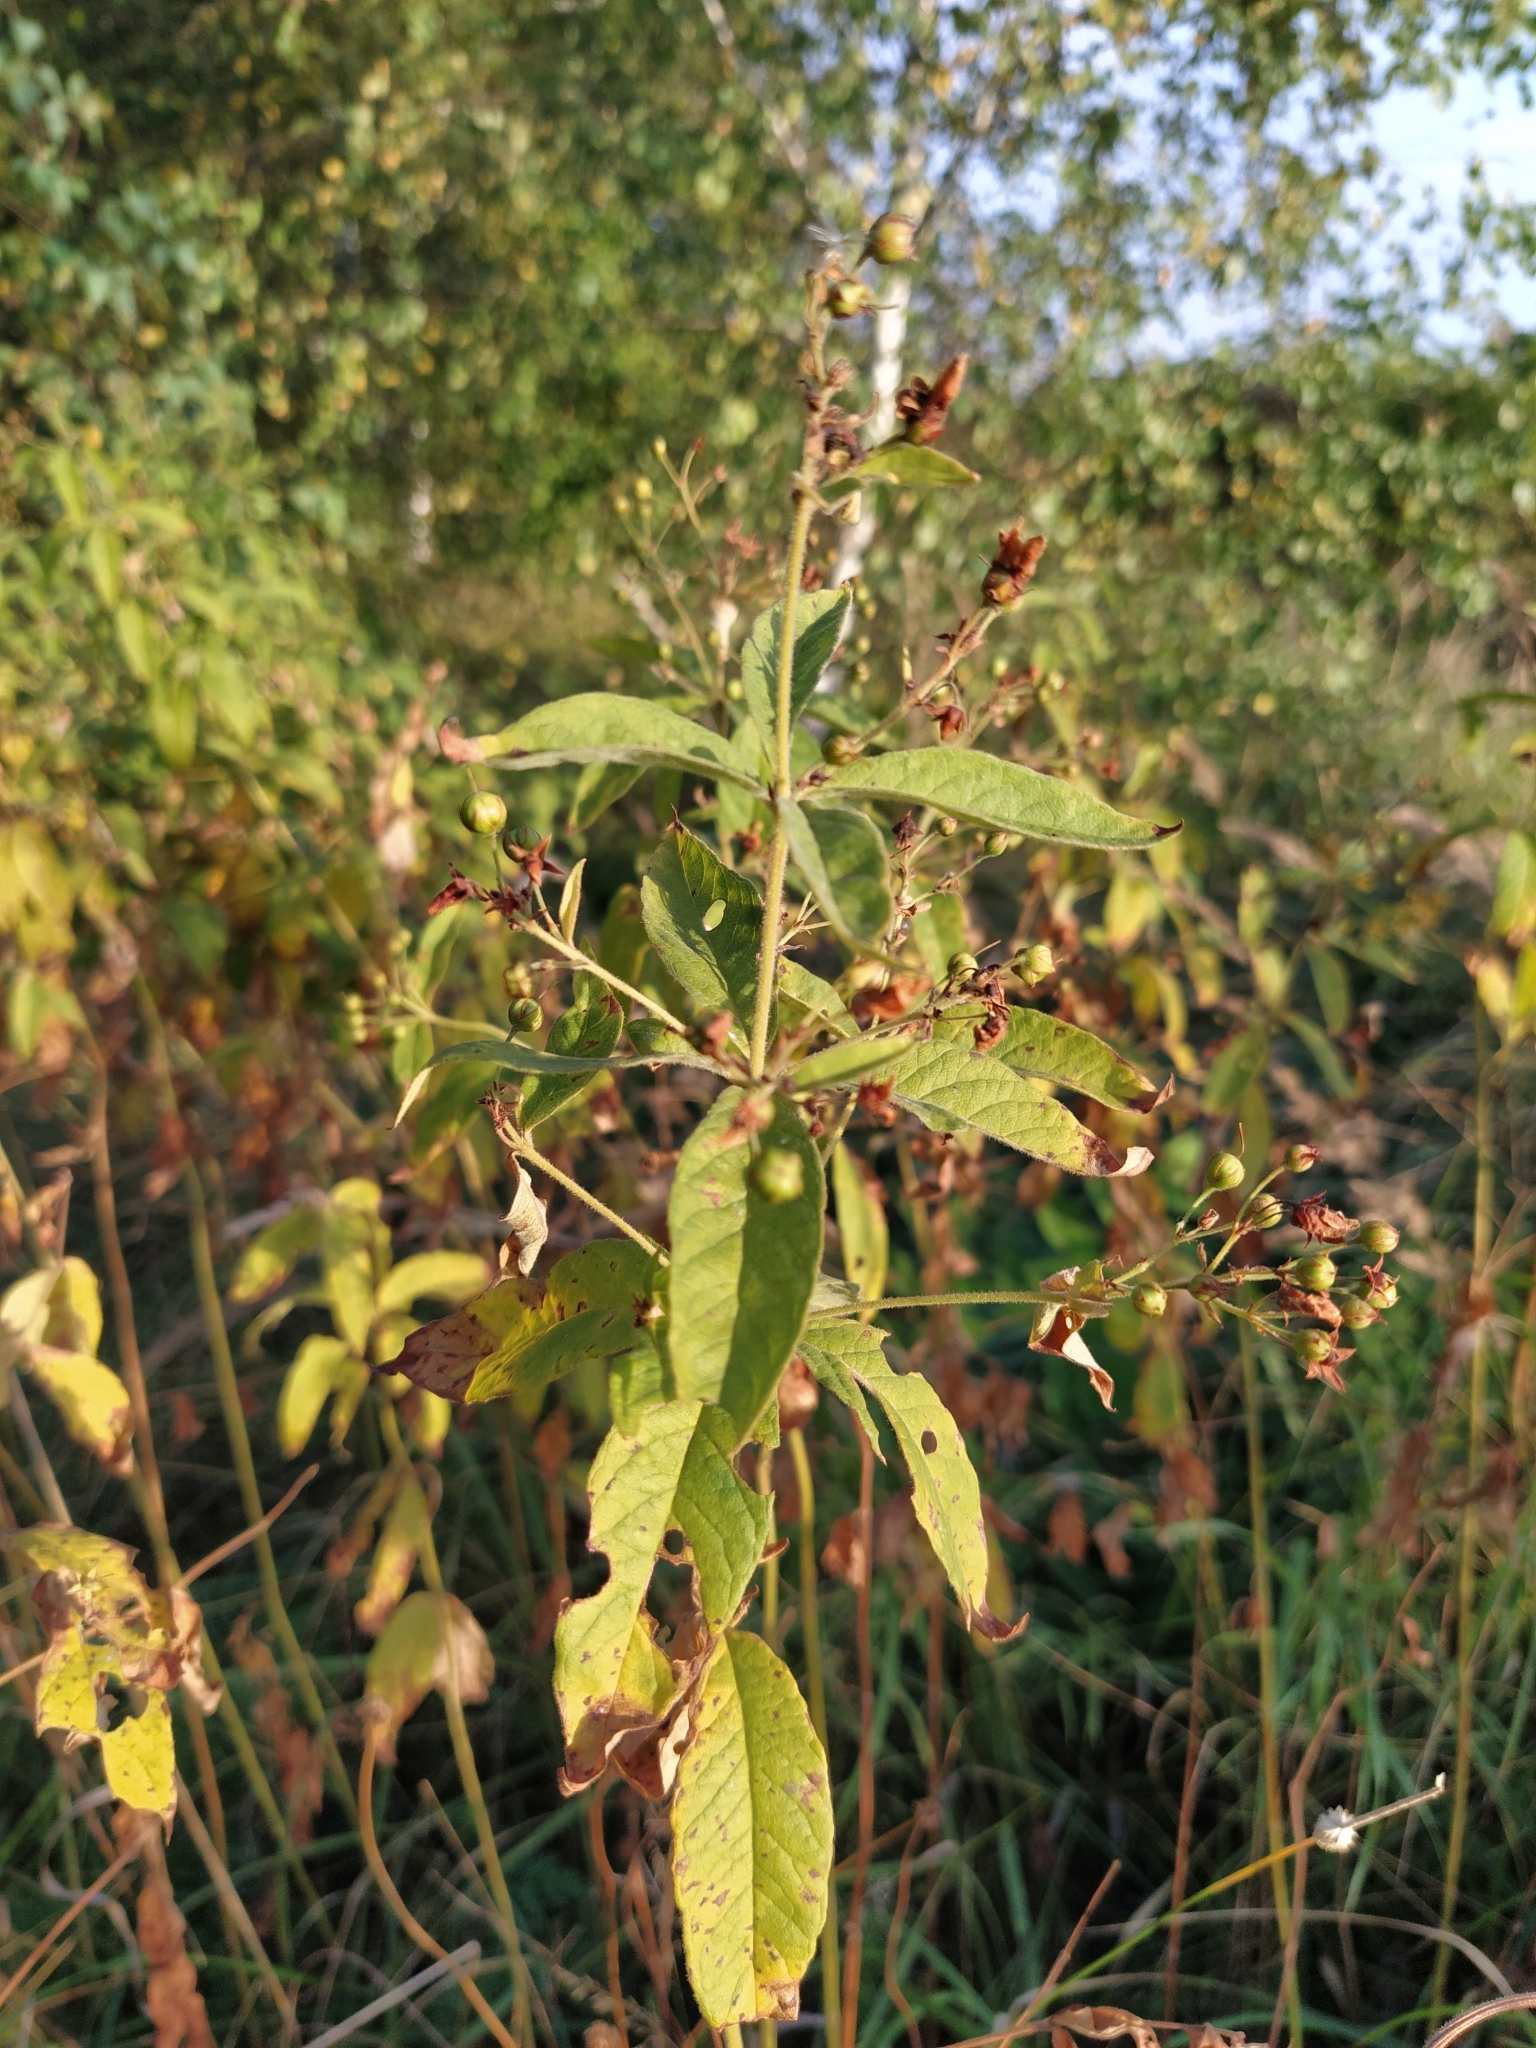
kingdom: Plantae
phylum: Tracheophyta
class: Magnoliopsida
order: Ericales
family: Primulaceae
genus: Lysimachia
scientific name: Lysimachia vulgaris
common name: Yellow loosestrife
